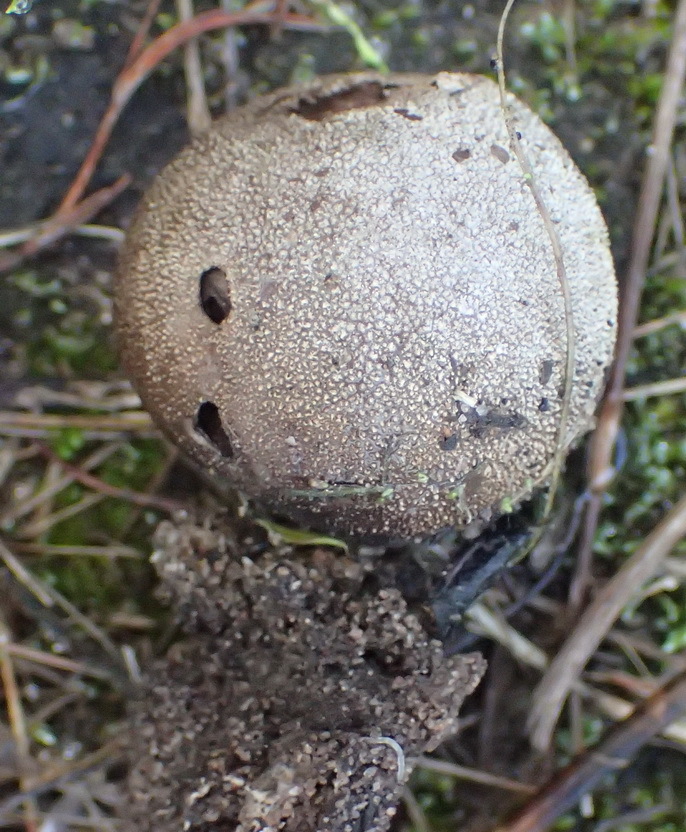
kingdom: Fungi
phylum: Basidiomycota
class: Agaricomycetes
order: Agaricales
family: Lycoperdaceae
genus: Lycoperdon
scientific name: Lycoperdon pratense
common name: Meadow puffball
